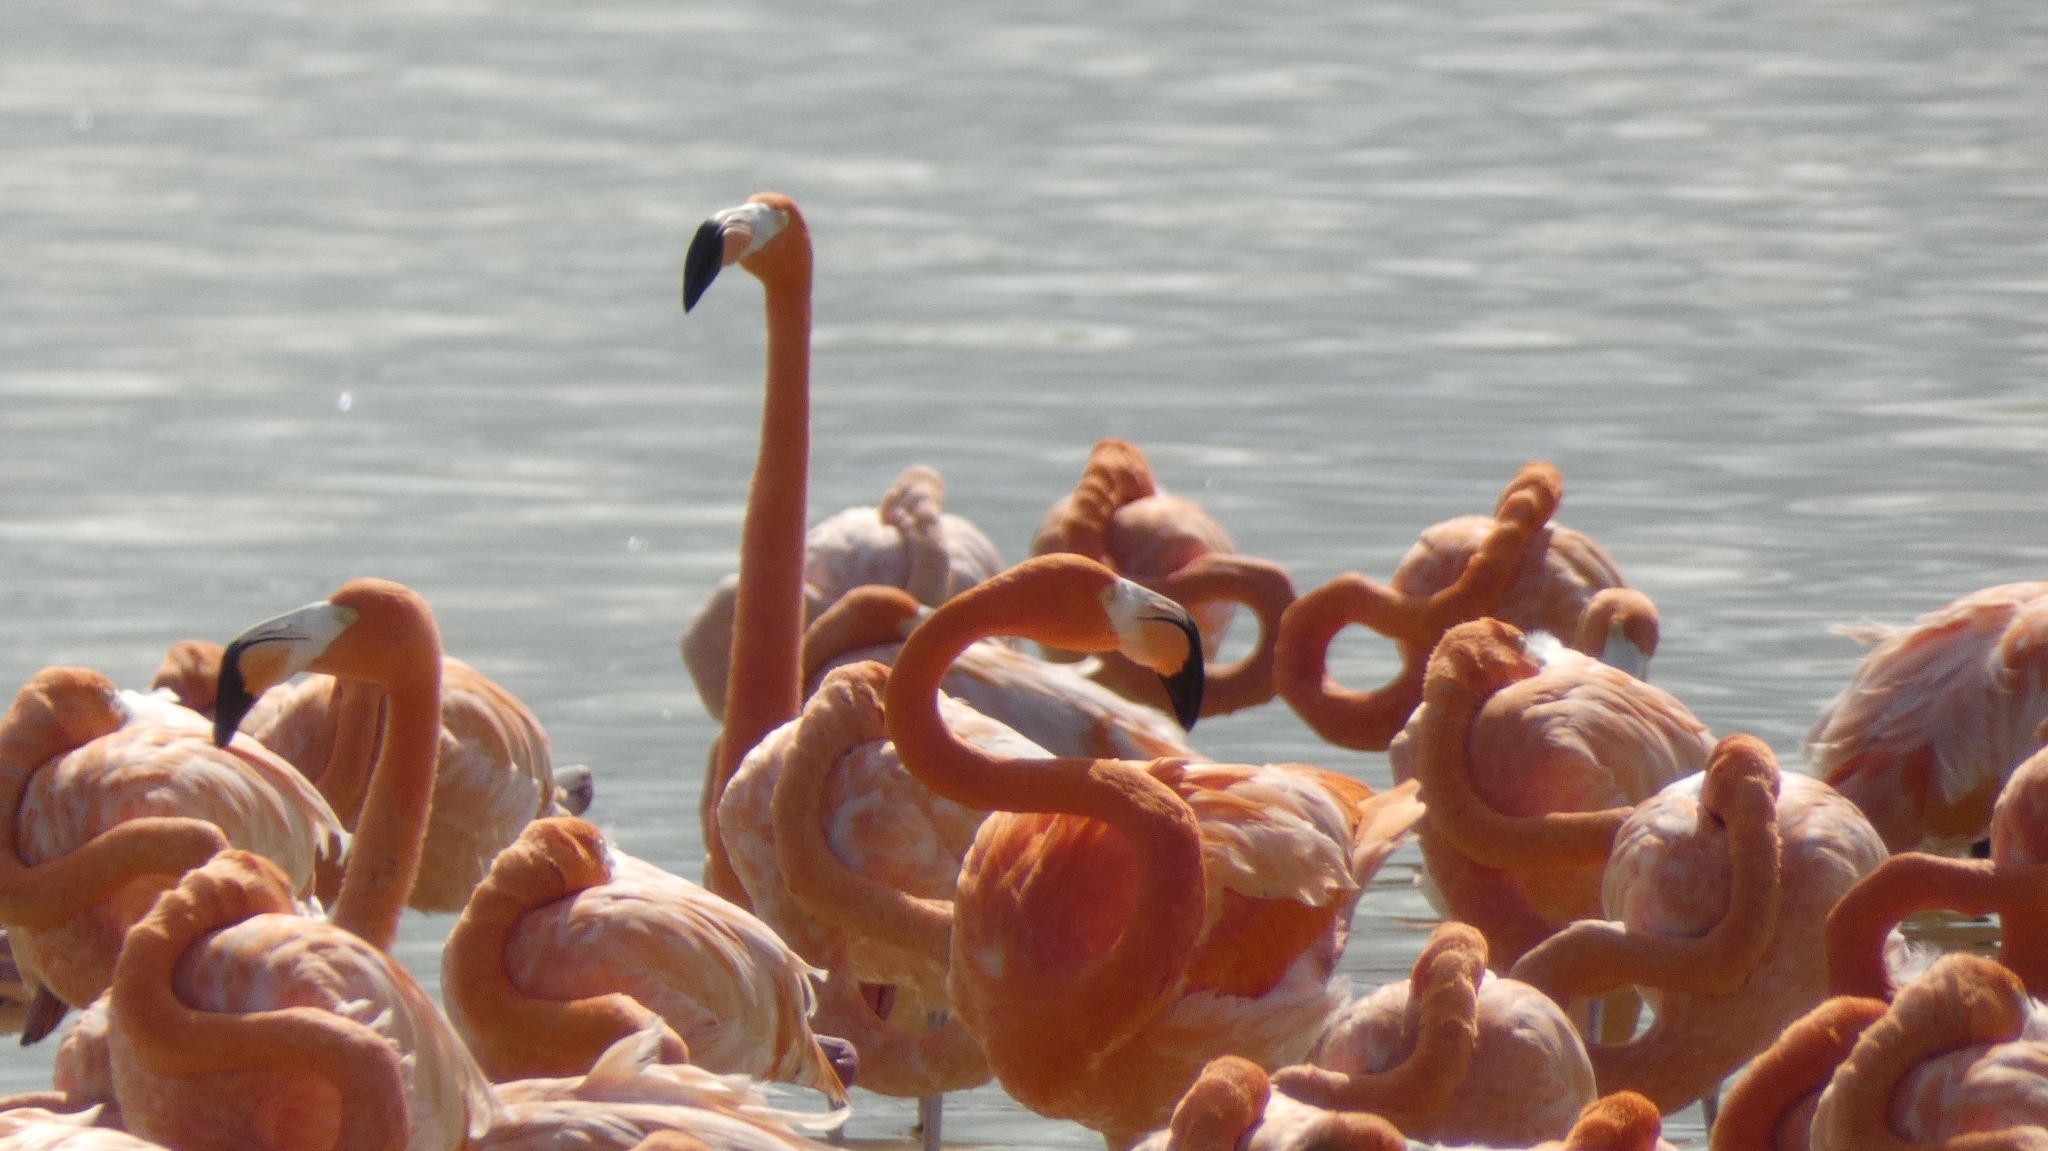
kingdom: Animalia
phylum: Chordata
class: Aves
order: Phoenicopteriformes
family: Phoenicopteridae
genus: Phoenicopterus
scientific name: Phoenicopterus ruber
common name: American flamingo
